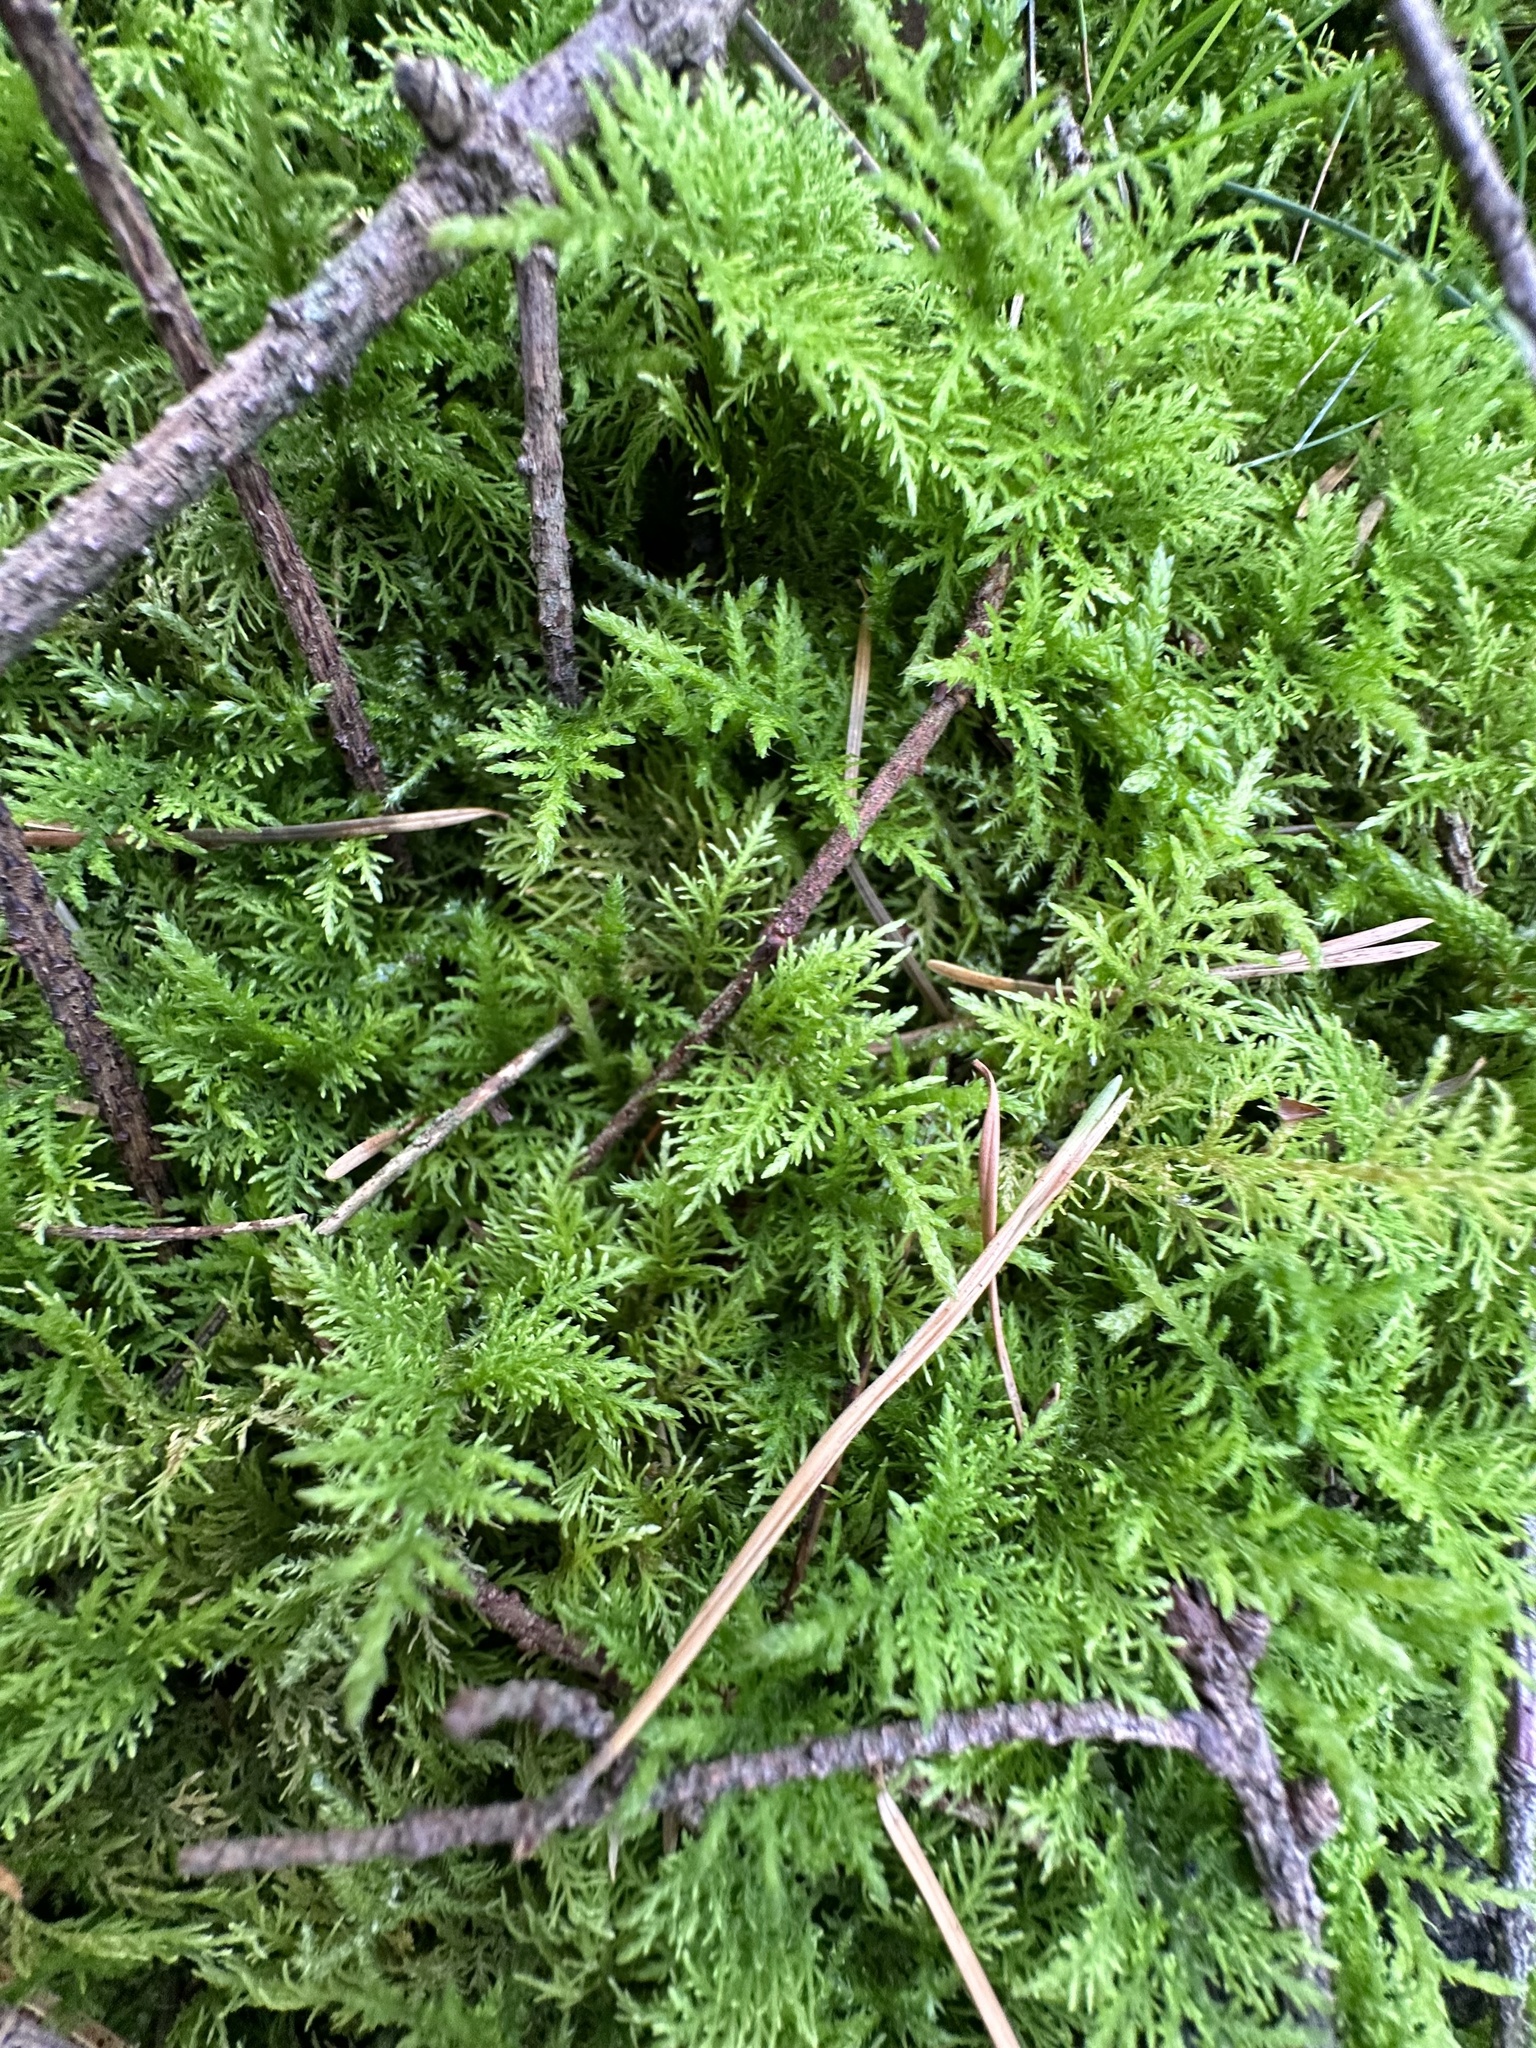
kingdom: Plantae
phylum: Bryophyta
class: Bryopsida
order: Hypnales
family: Thuidiaceae
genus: Thuidium
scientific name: Thuidium tamariscinum
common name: Common tamarisk-moss
